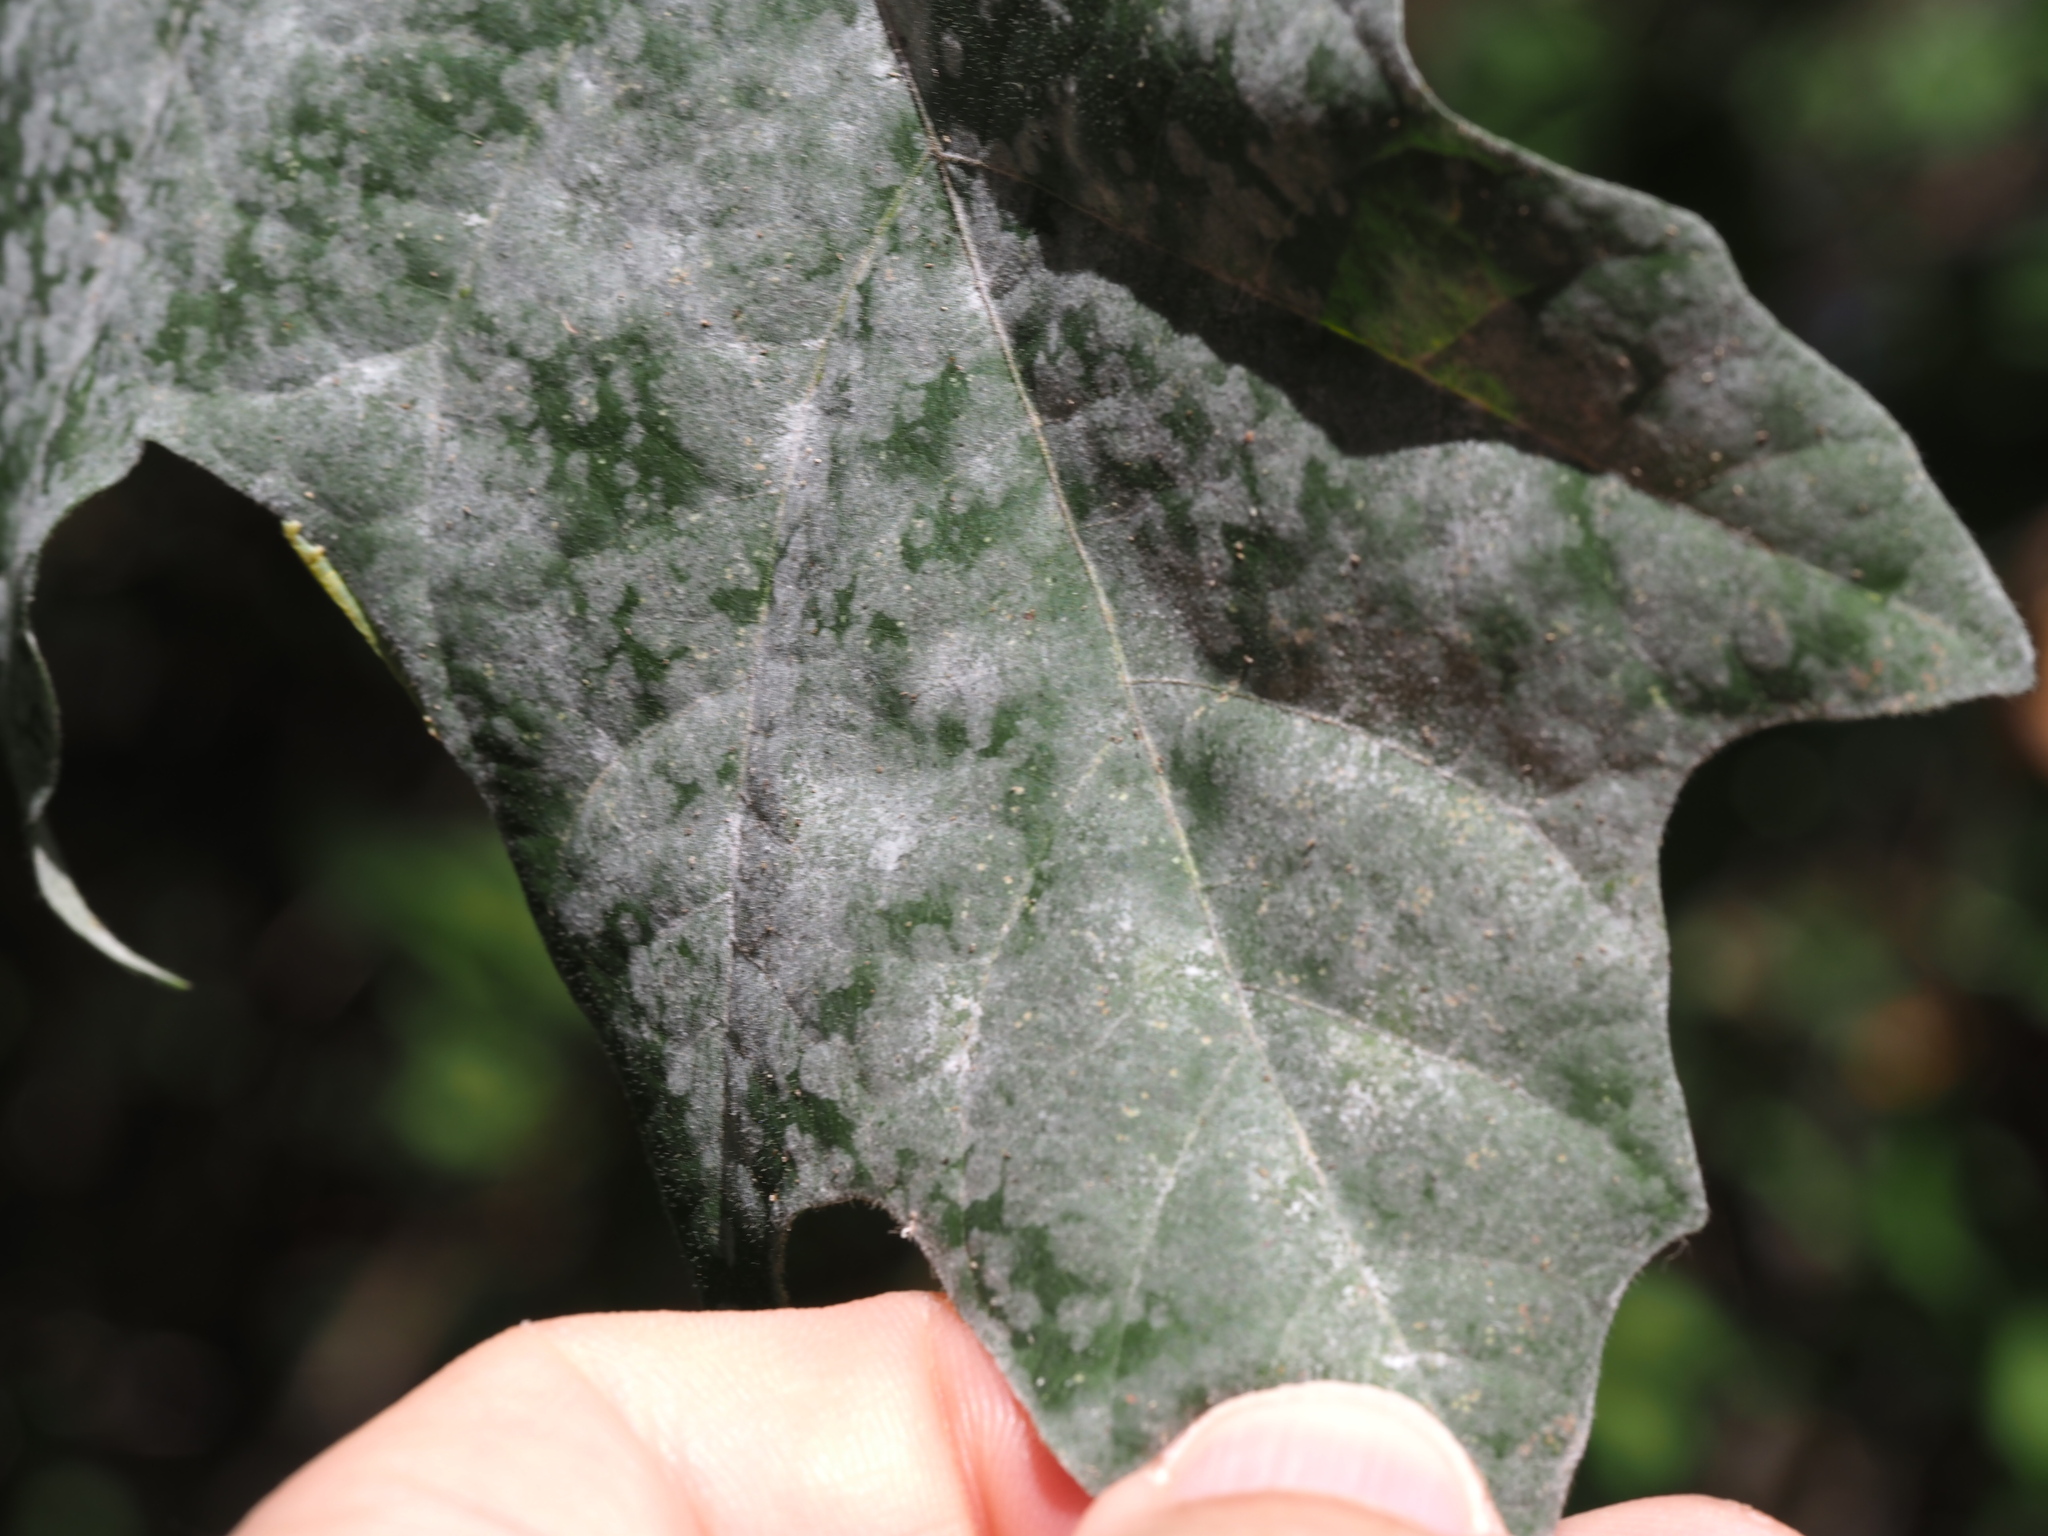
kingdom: Fungi
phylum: Ascomycota
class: Leotiomycetes
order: Helotiales
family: Erysiphaceae
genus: Sawadaea
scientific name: Sawadaea bicornis
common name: Maple mildew
